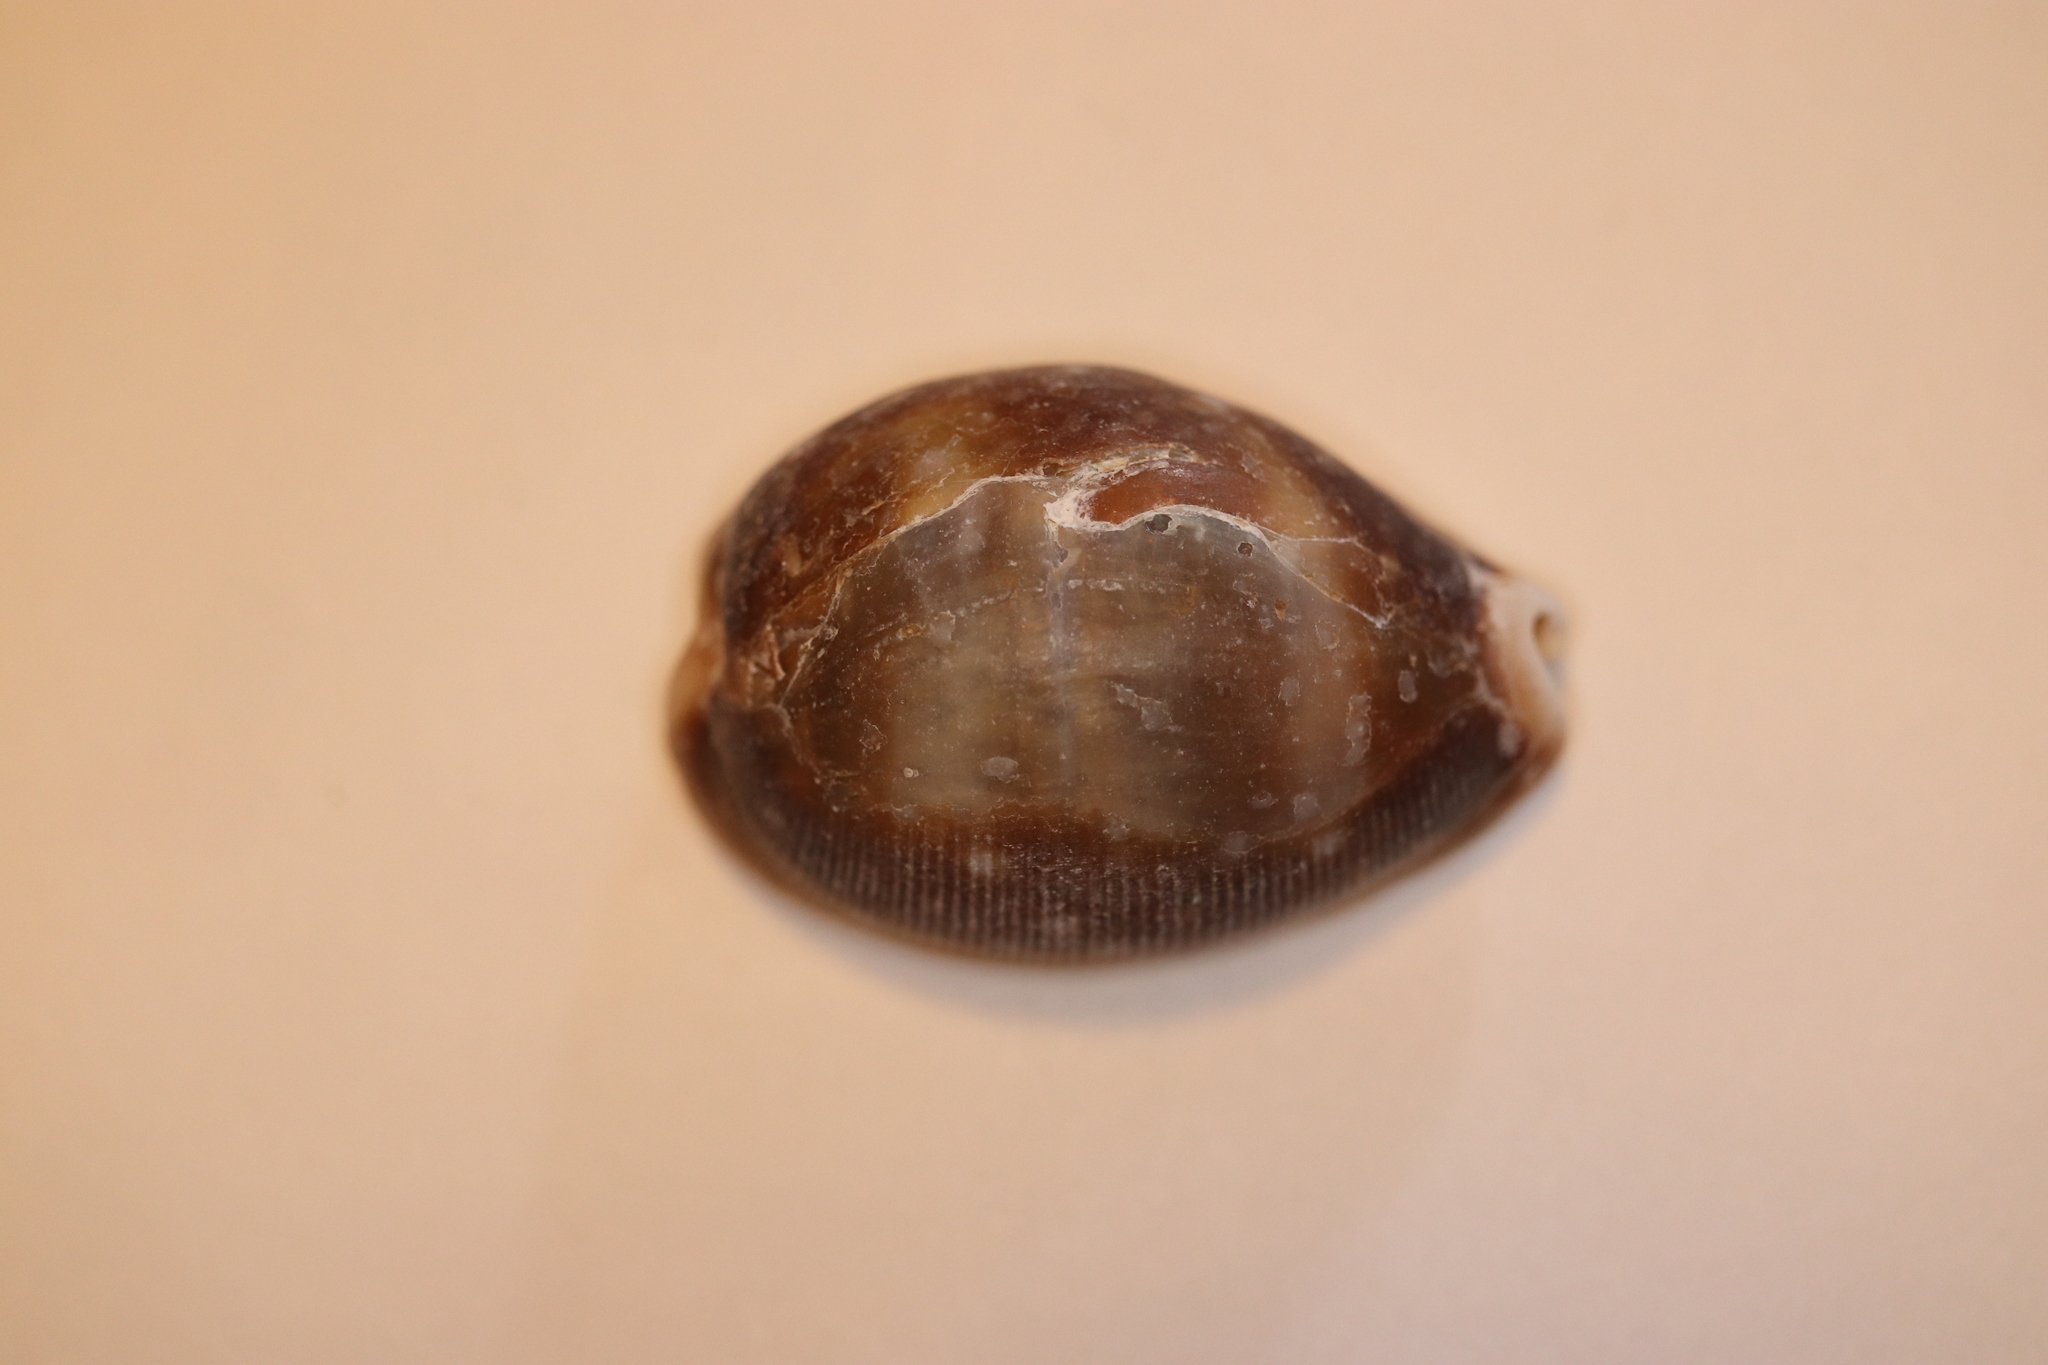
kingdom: Animalia
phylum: Mollusca
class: Gastropoda
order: Littorinimorpha
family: Cypraeidae
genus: Lyncina
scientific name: Lyncina vitellus
